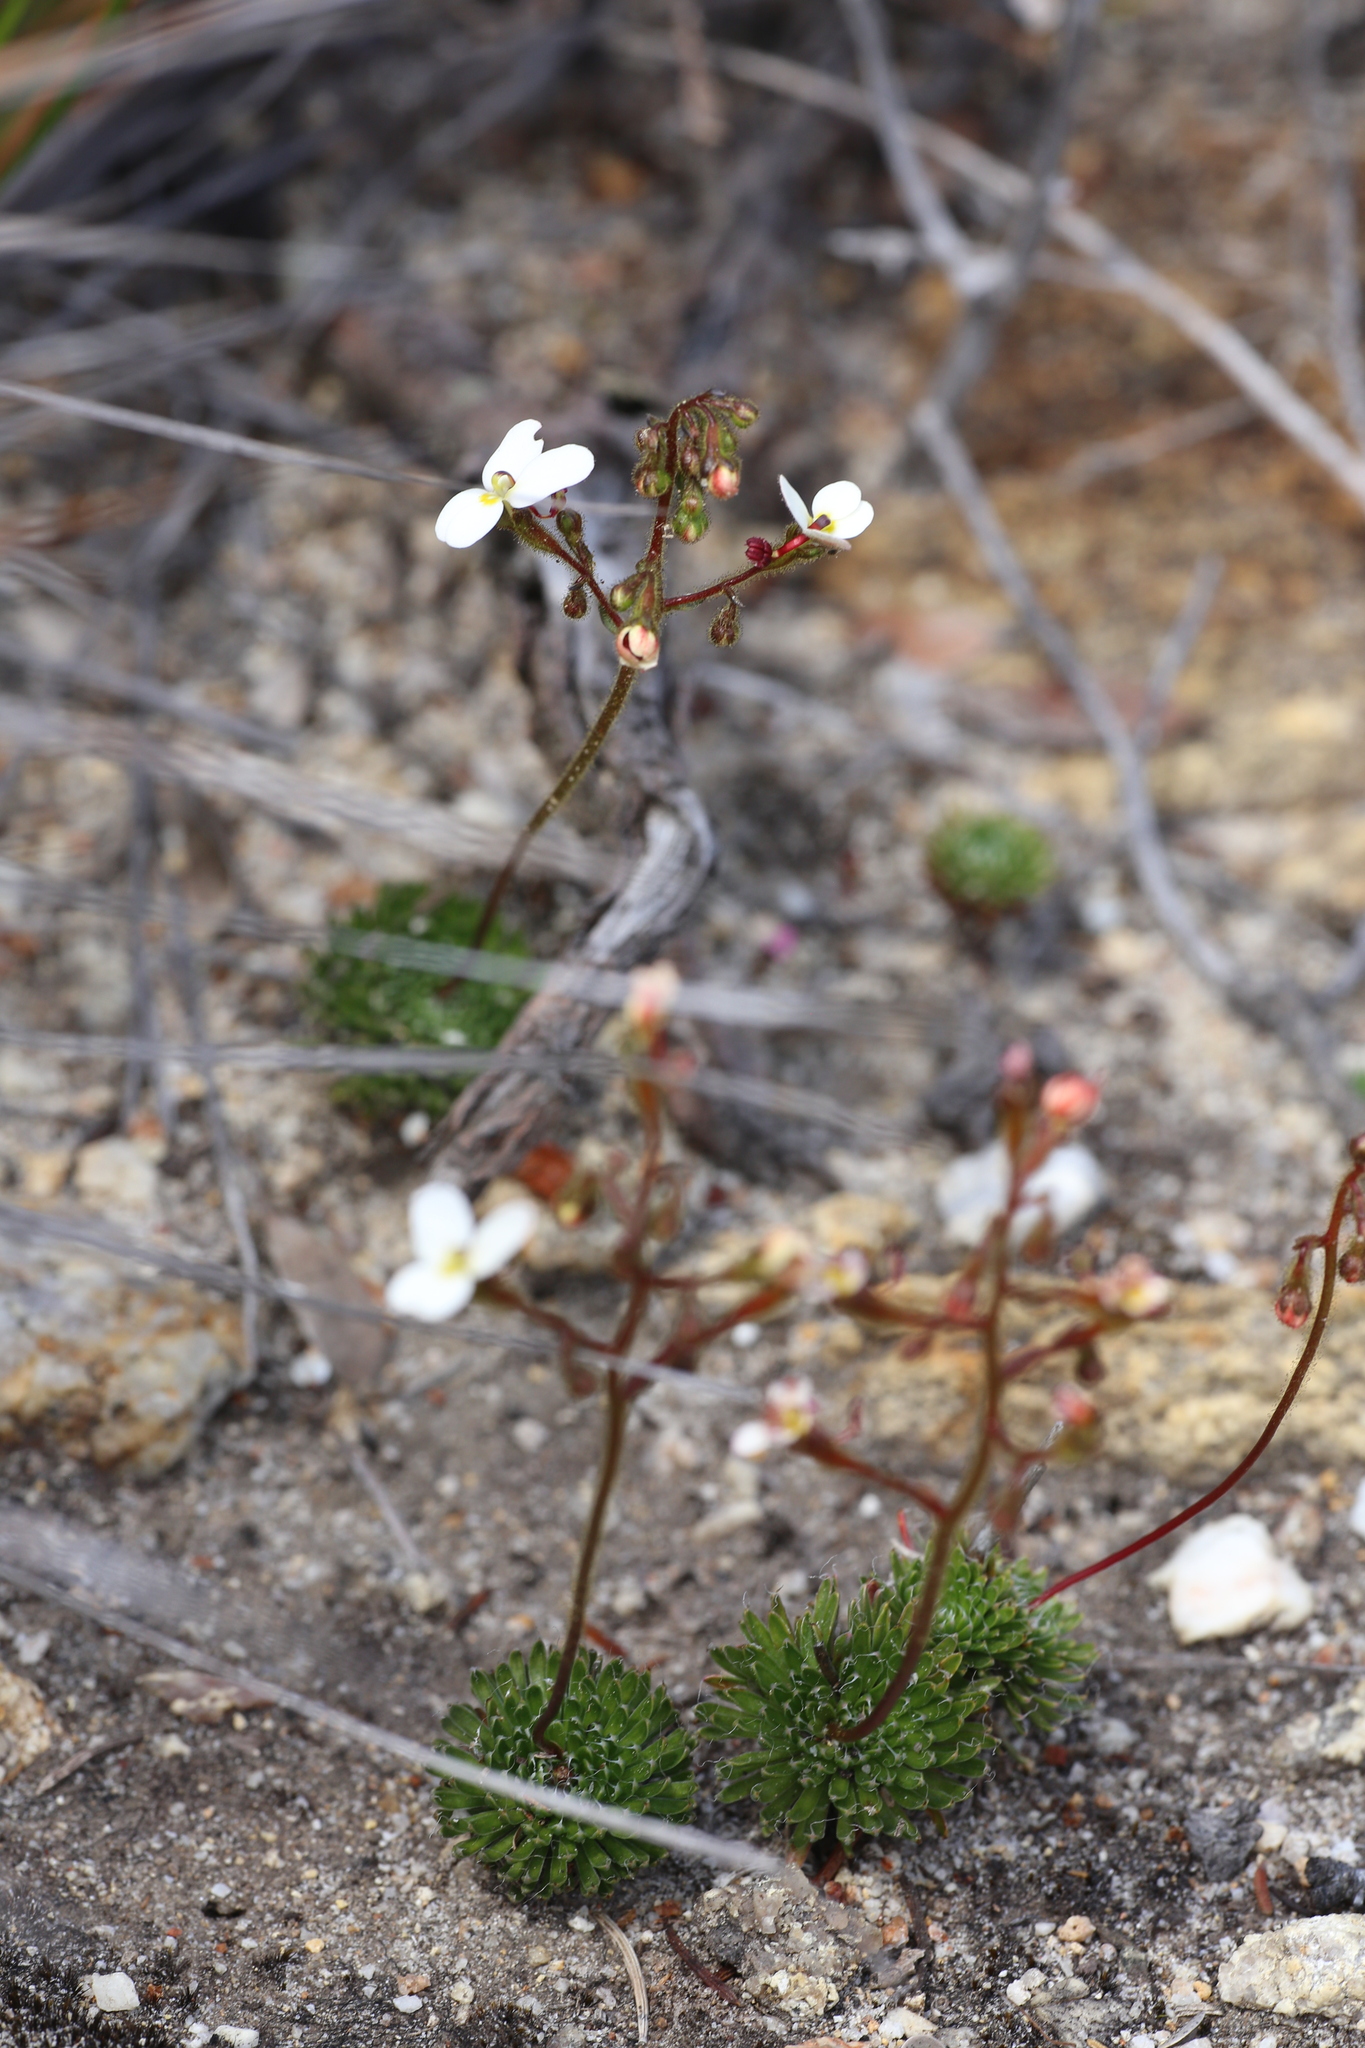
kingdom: Plantae
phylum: Tracheophyta
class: Magnoliopsida
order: Asterales
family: Stylidiaceae
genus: Stylidium
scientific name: Stylidium piliferum
